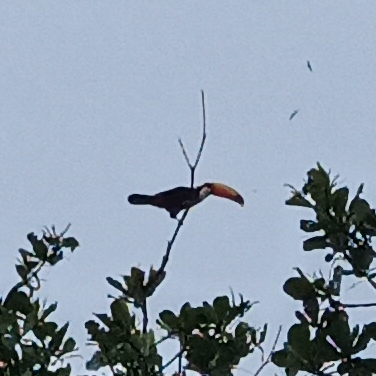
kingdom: Animalia
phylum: Chordata
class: Aves
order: Piciformes
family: Ramphastidae
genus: Ramphastos
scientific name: Ramphastos toco
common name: Toco toucan
